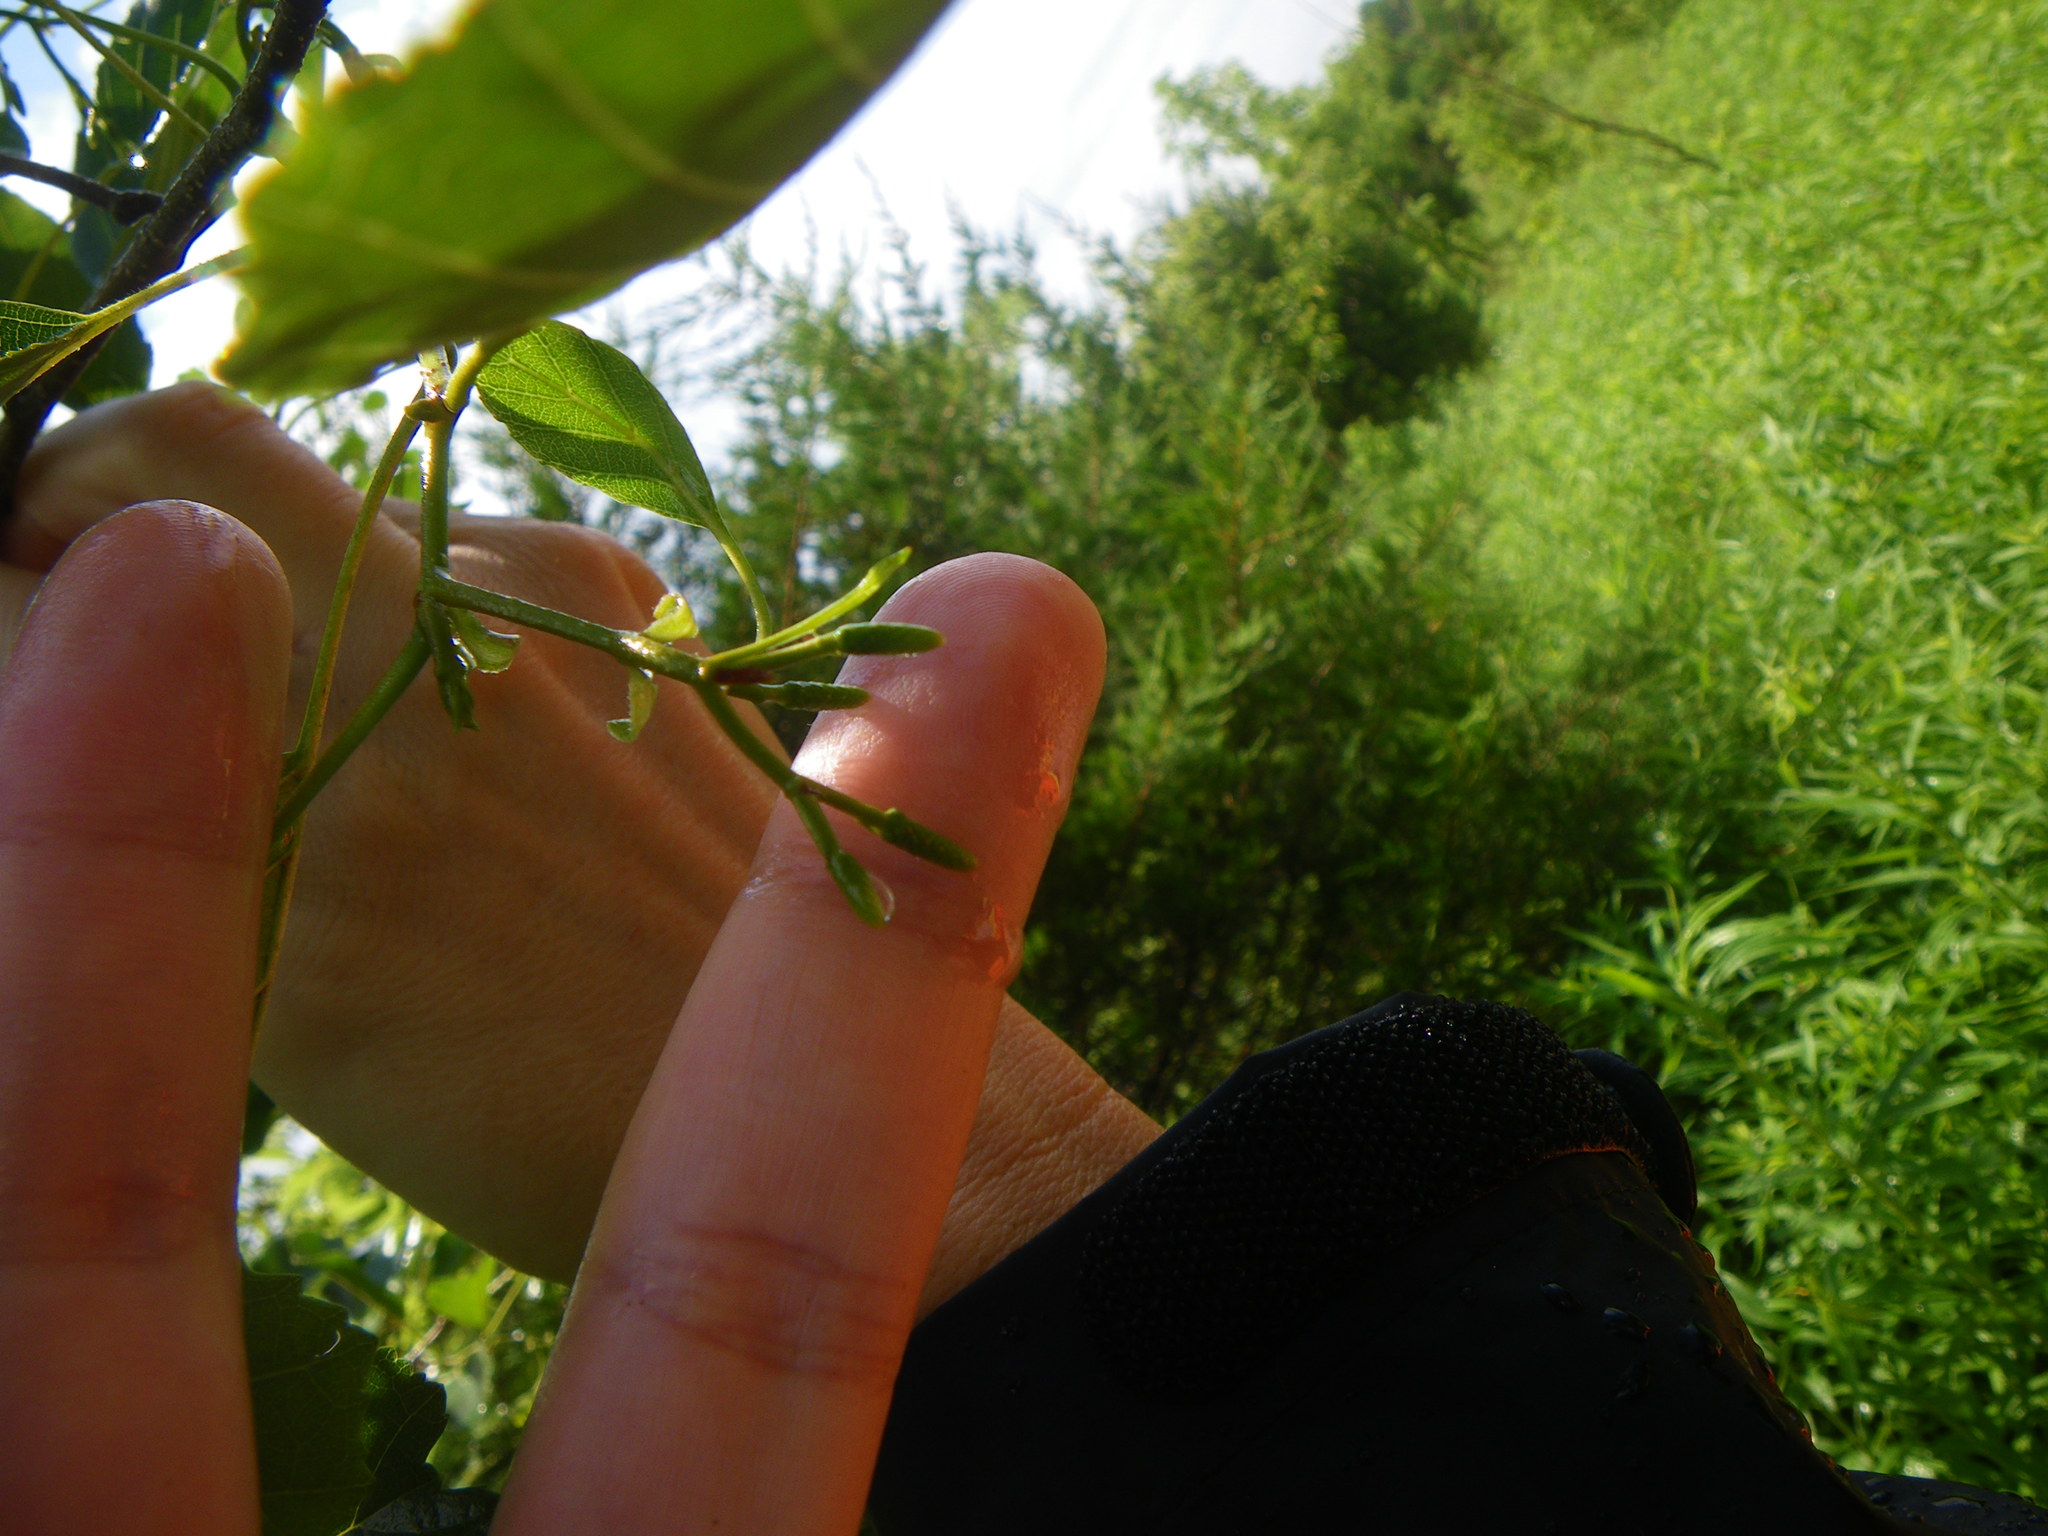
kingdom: Plantae
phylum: Tracheophyta
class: Magnoliopsida
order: Fagales
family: Betulaceae
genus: Alnus
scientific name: Alnus glutinosa
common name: Black alder
